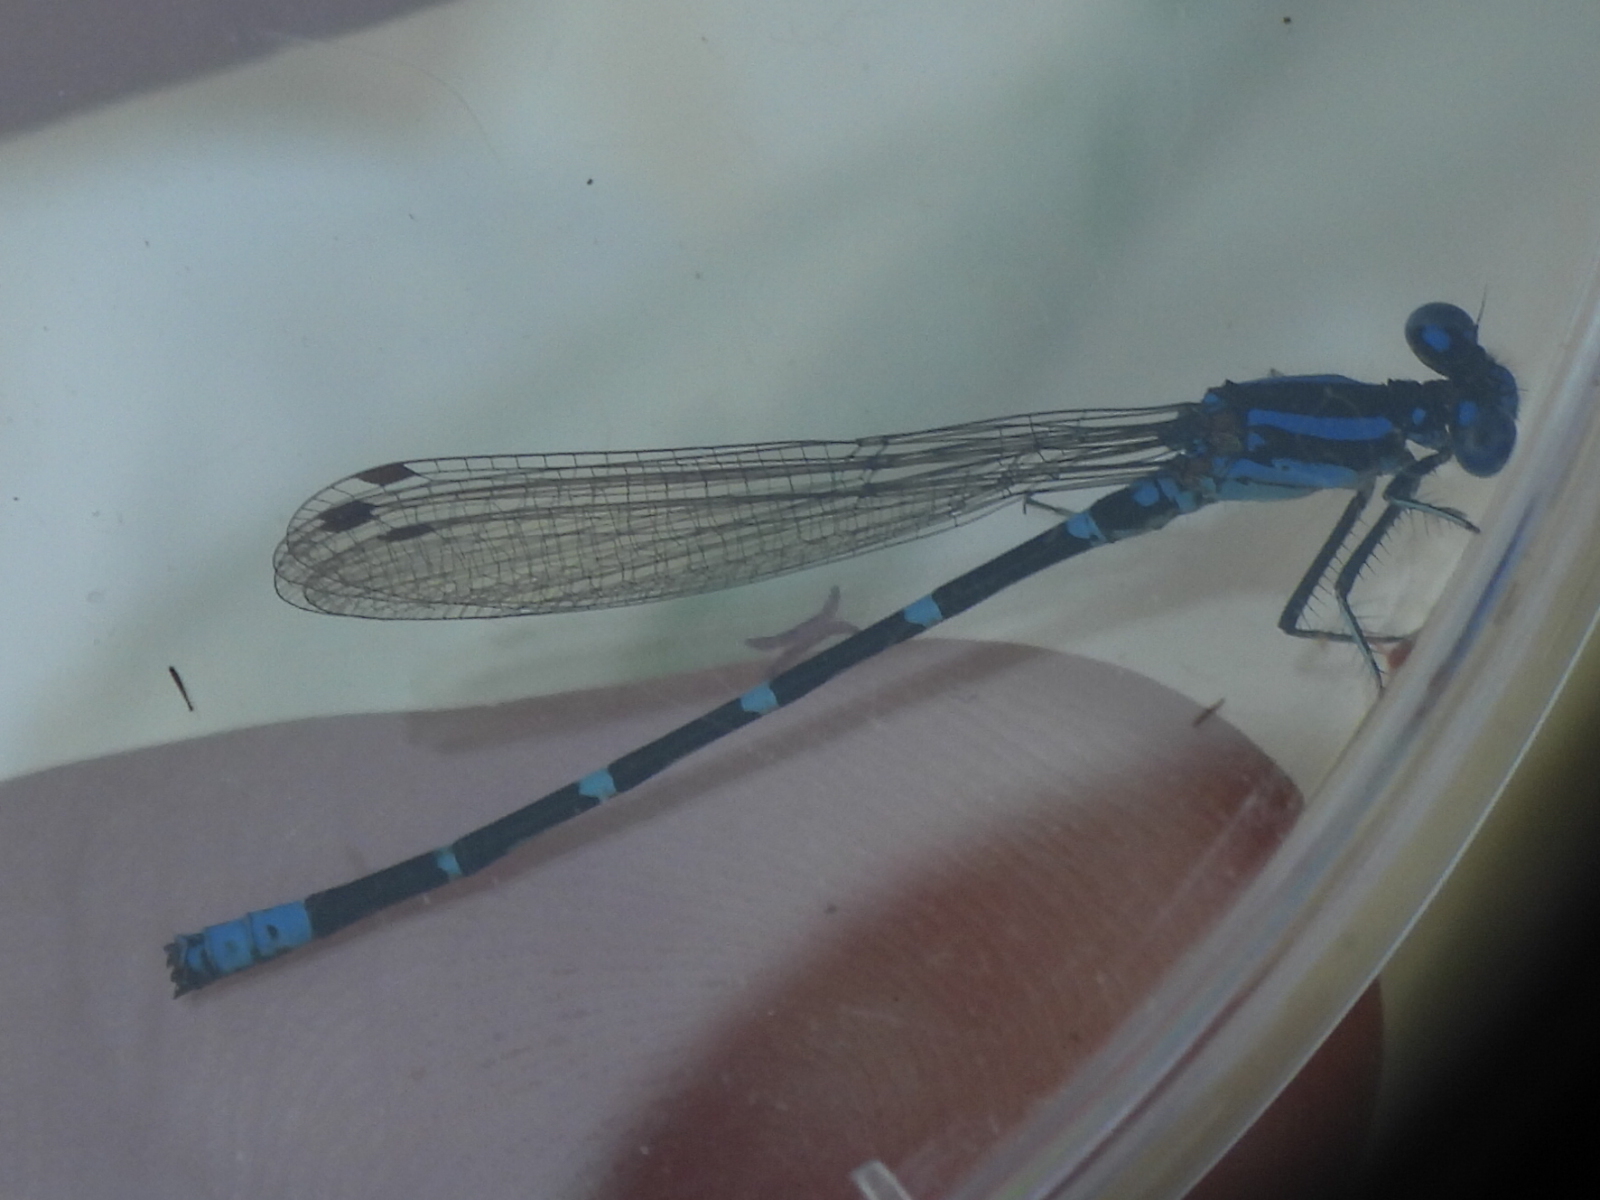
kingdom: Animalia
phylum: Arthropoda
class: Insecta
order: Odonata
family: Coenagrionidae
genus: Argia
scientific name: Argia sedula
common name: Blue-ringed dancer
